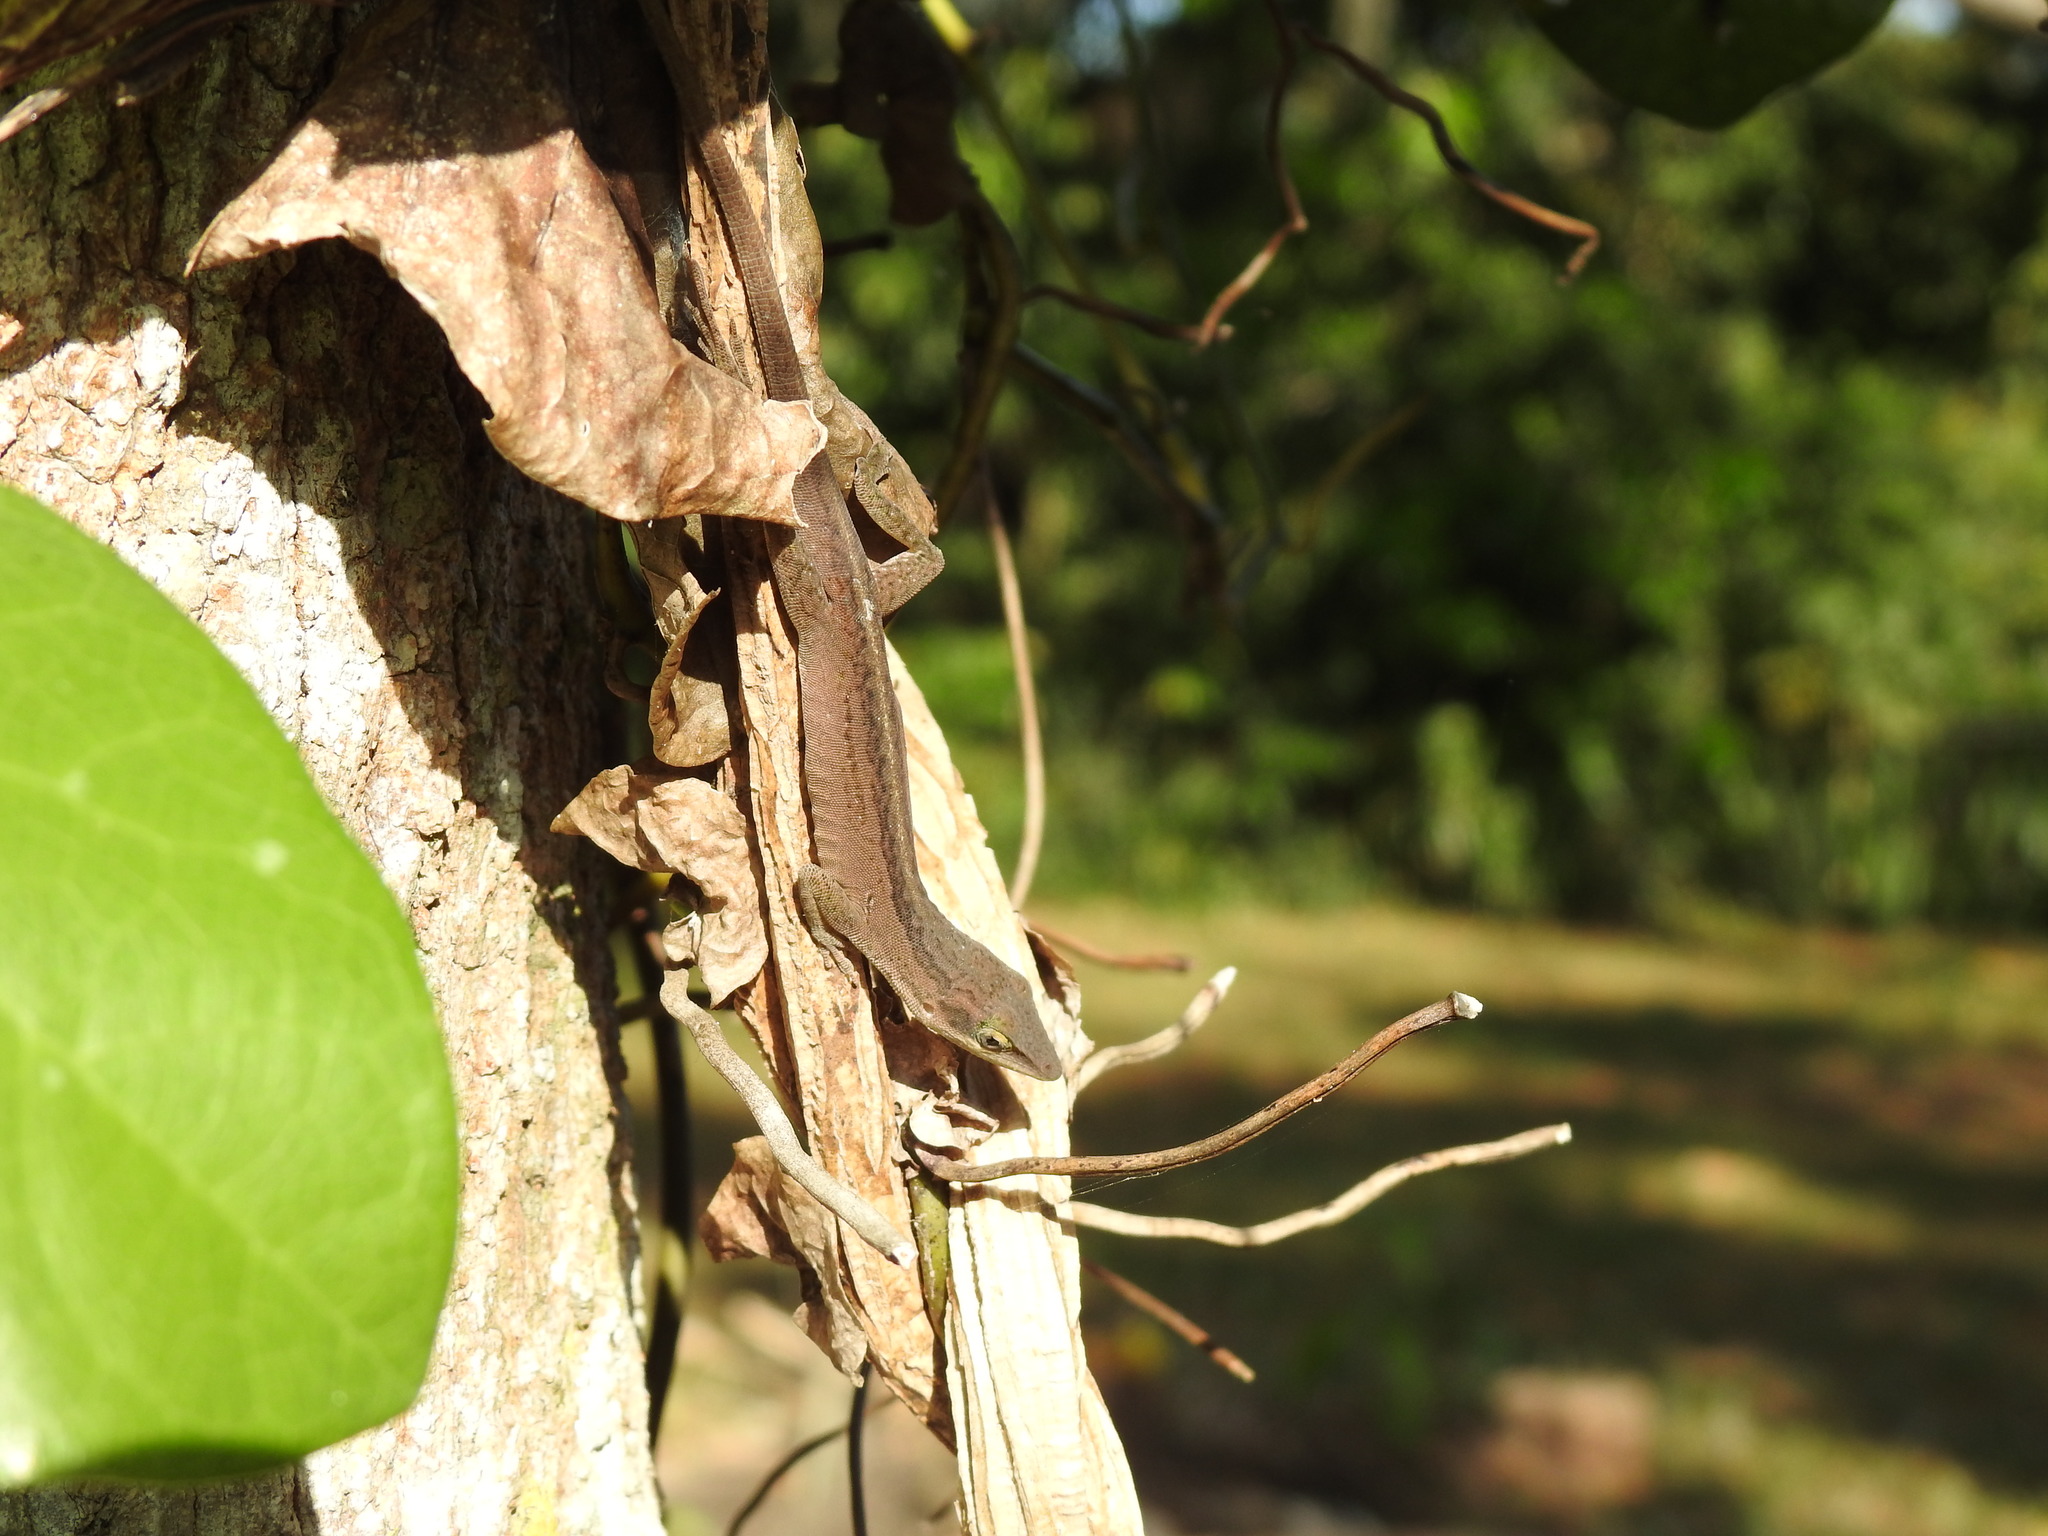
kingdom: Animalia
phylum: Chordata
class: Squamata
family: Dactyloidae
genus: Anolis
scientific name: Anolis carolinensis
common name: Green anole
